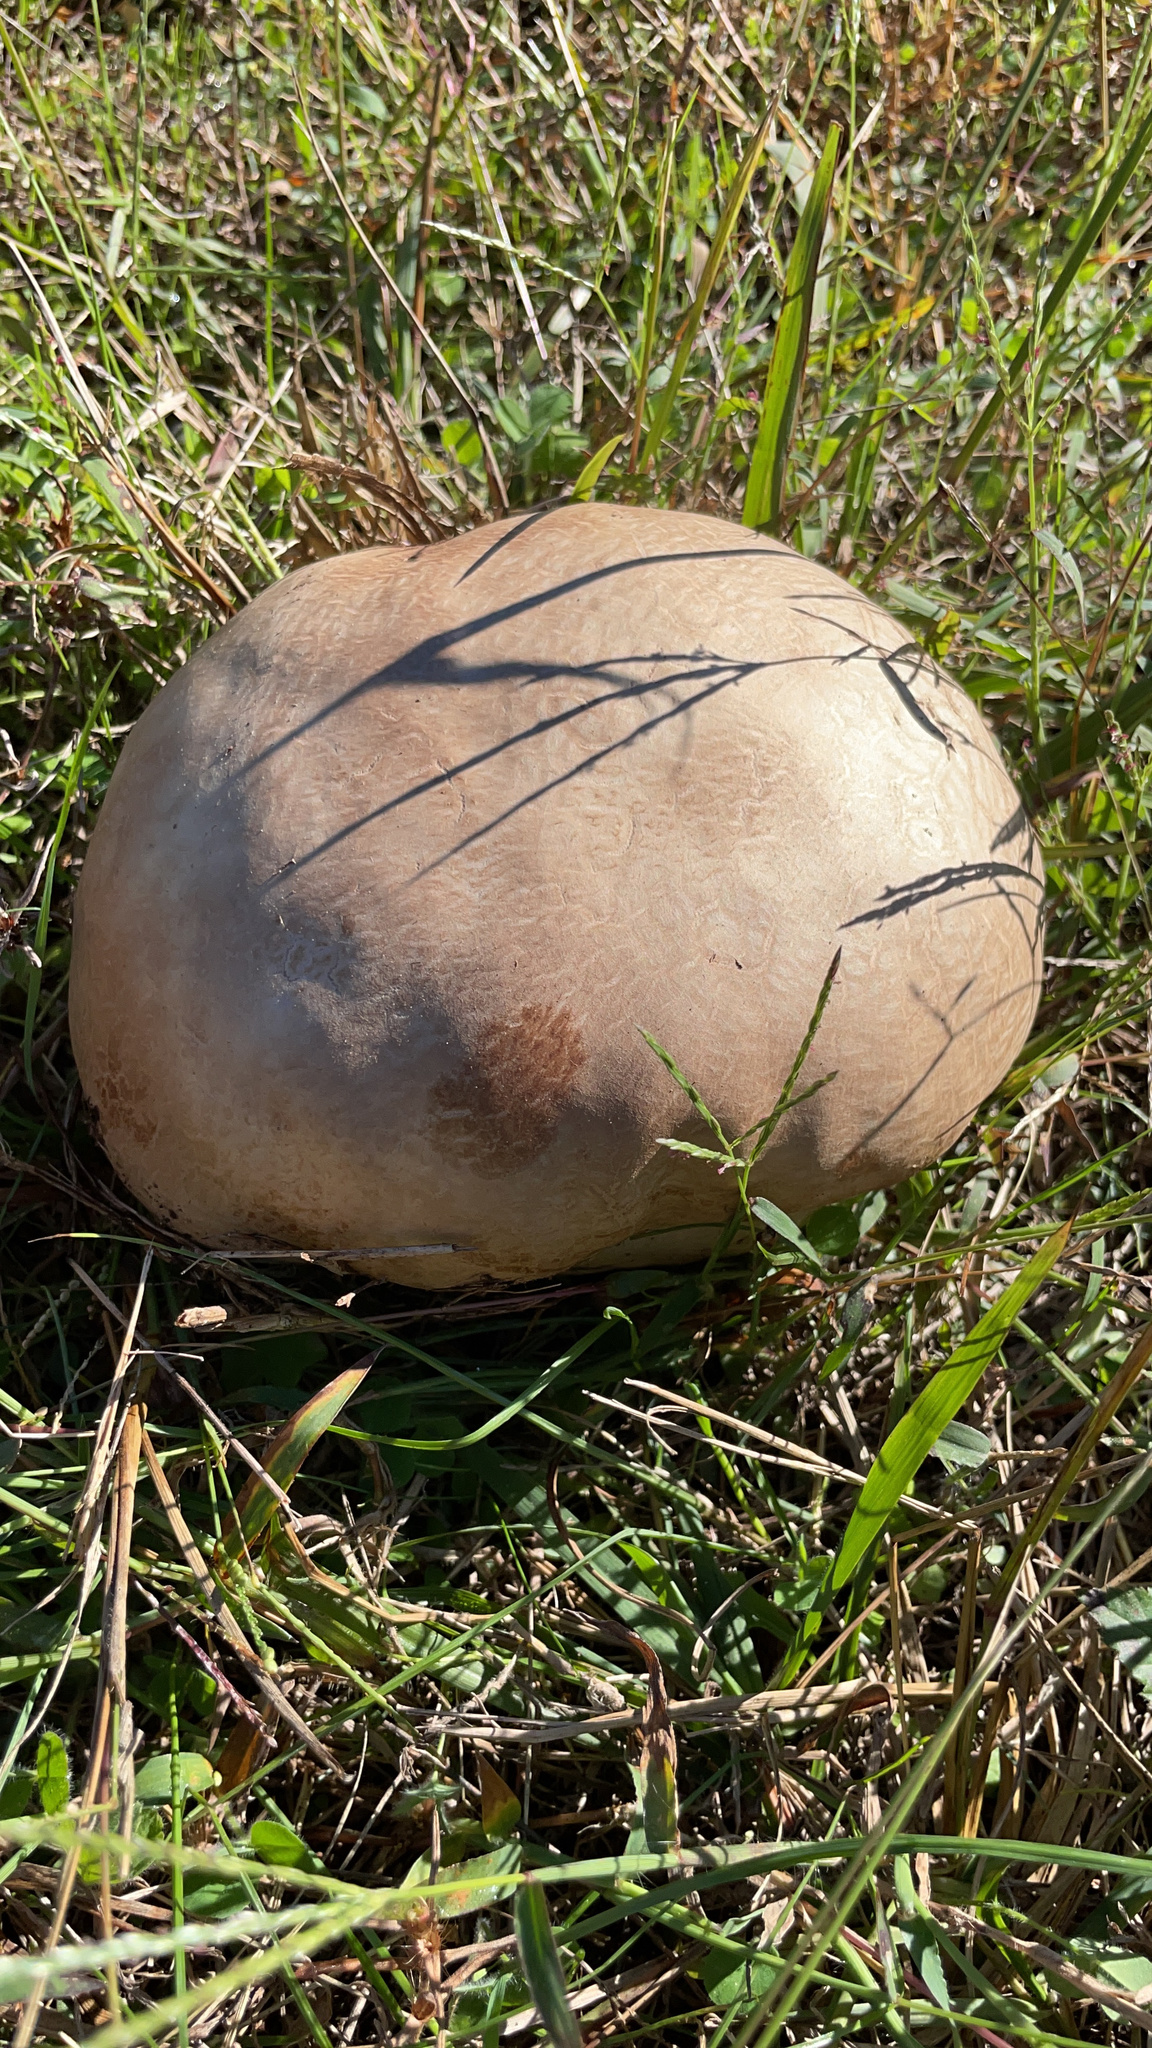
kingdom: Fungi
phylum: Basidiomycota
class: Agaricomycetes
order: Agaricales
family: Lycoperdaceae
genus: Calvatia
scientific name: Calvatia cyathiformis
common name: Purple-spored puffball
